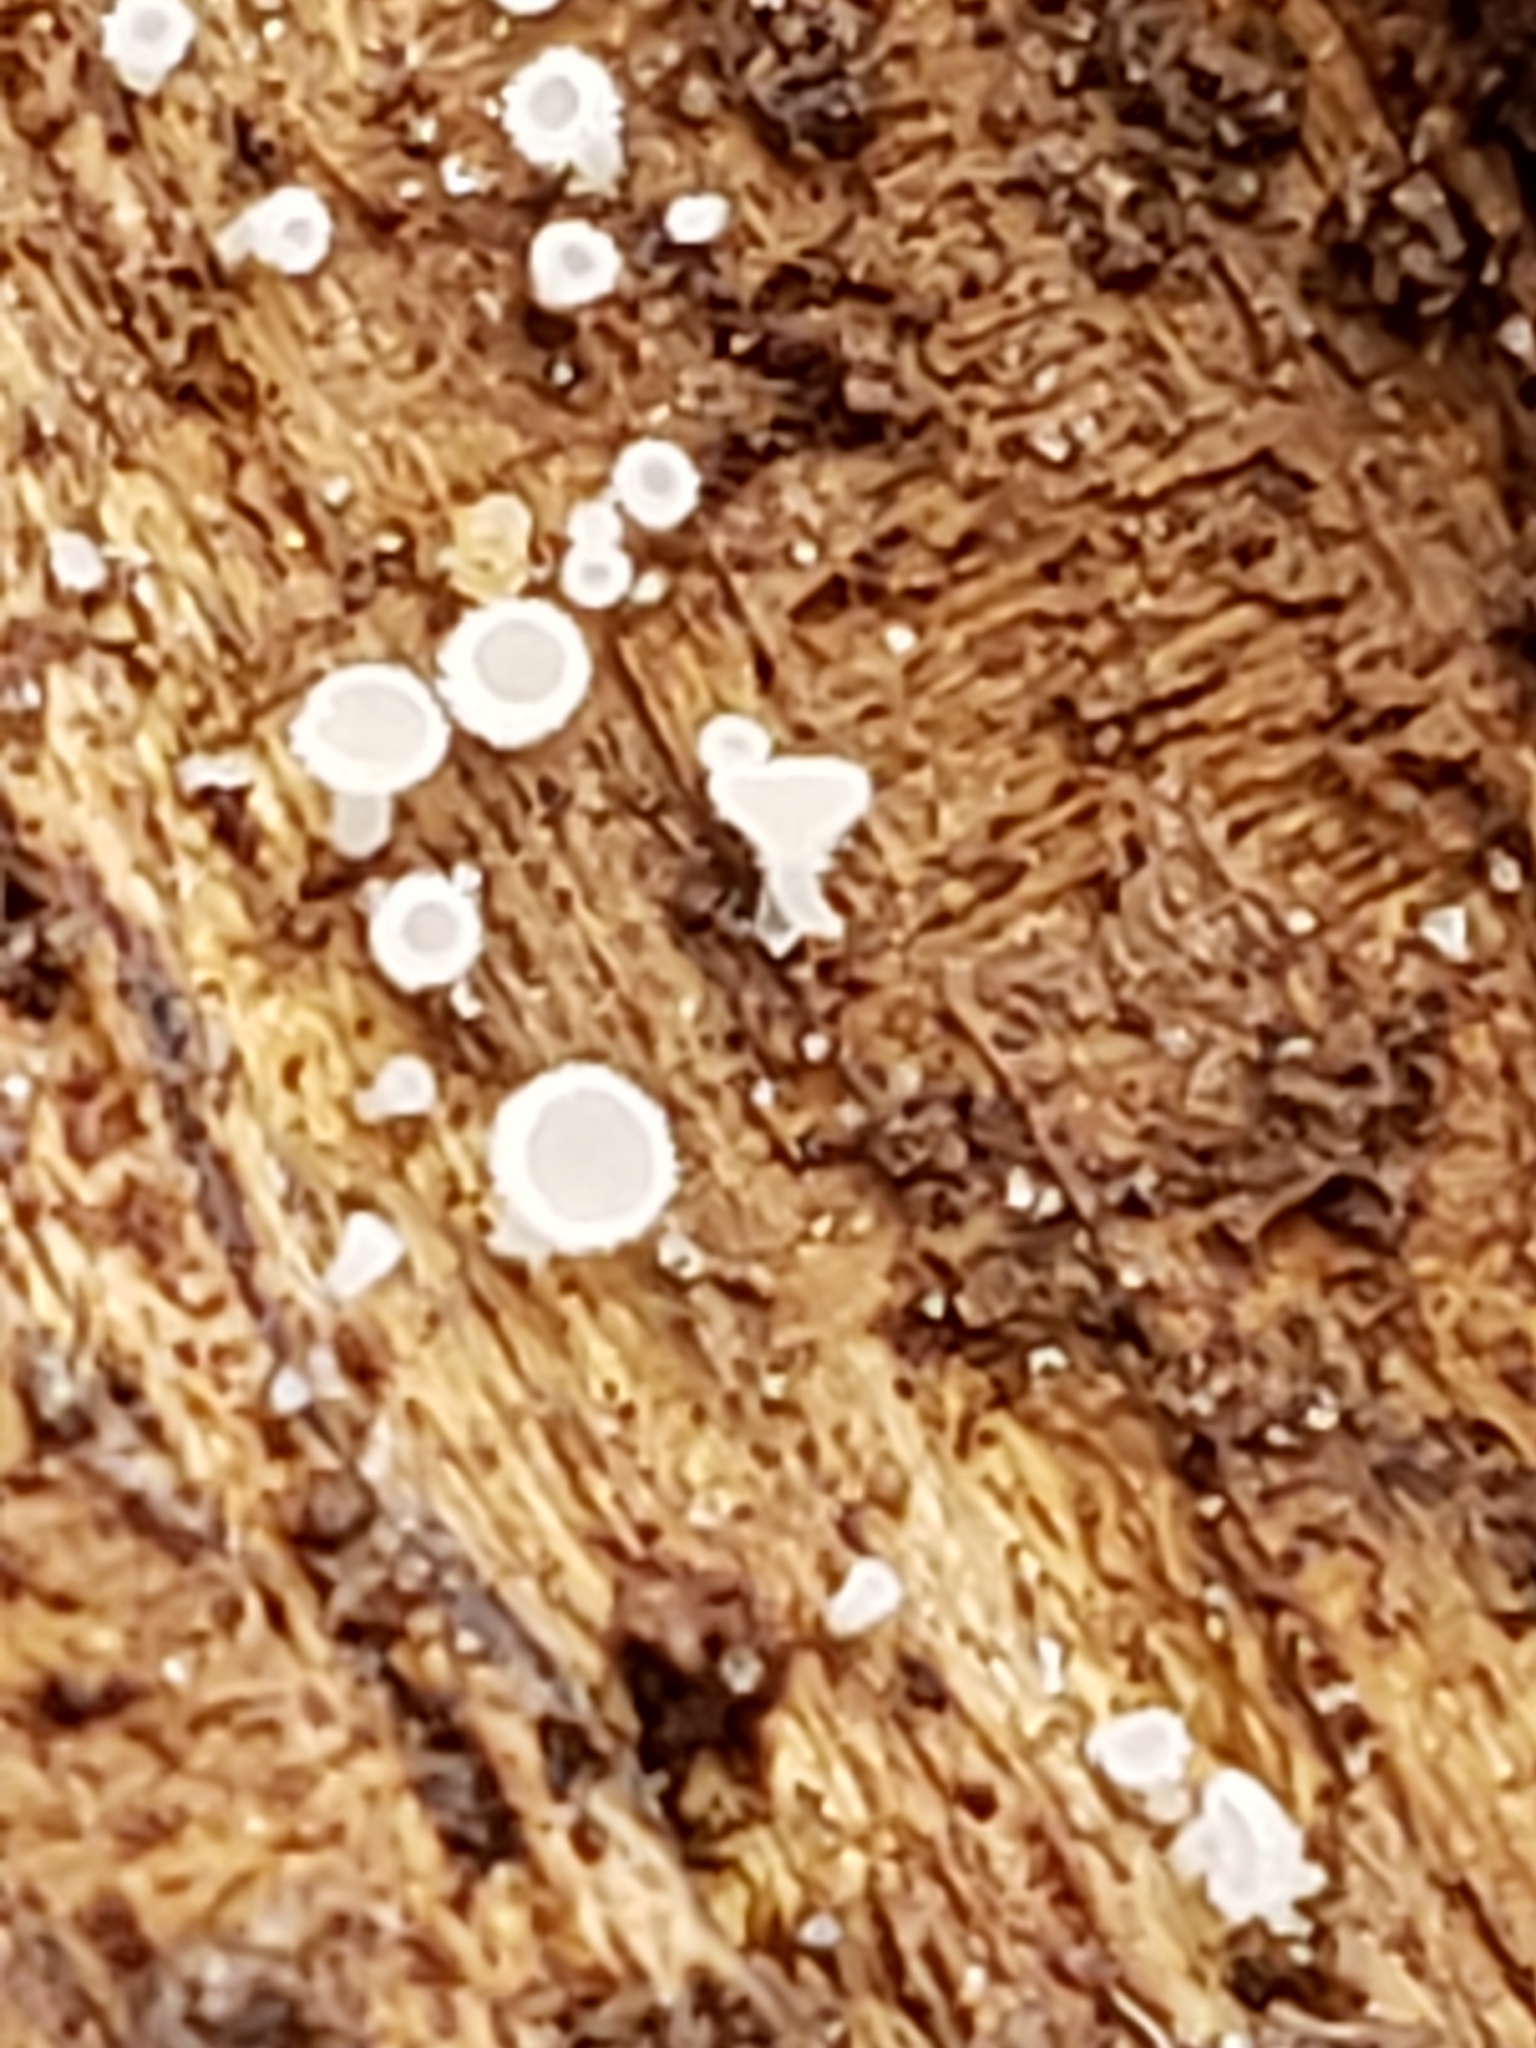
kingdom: Fungi
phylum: Ascomycota
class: Leotiomycetes
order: Helotiales
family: Lachnaceae
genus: Lachnum
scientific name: Lachnum virgineum
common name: Snowy disco
